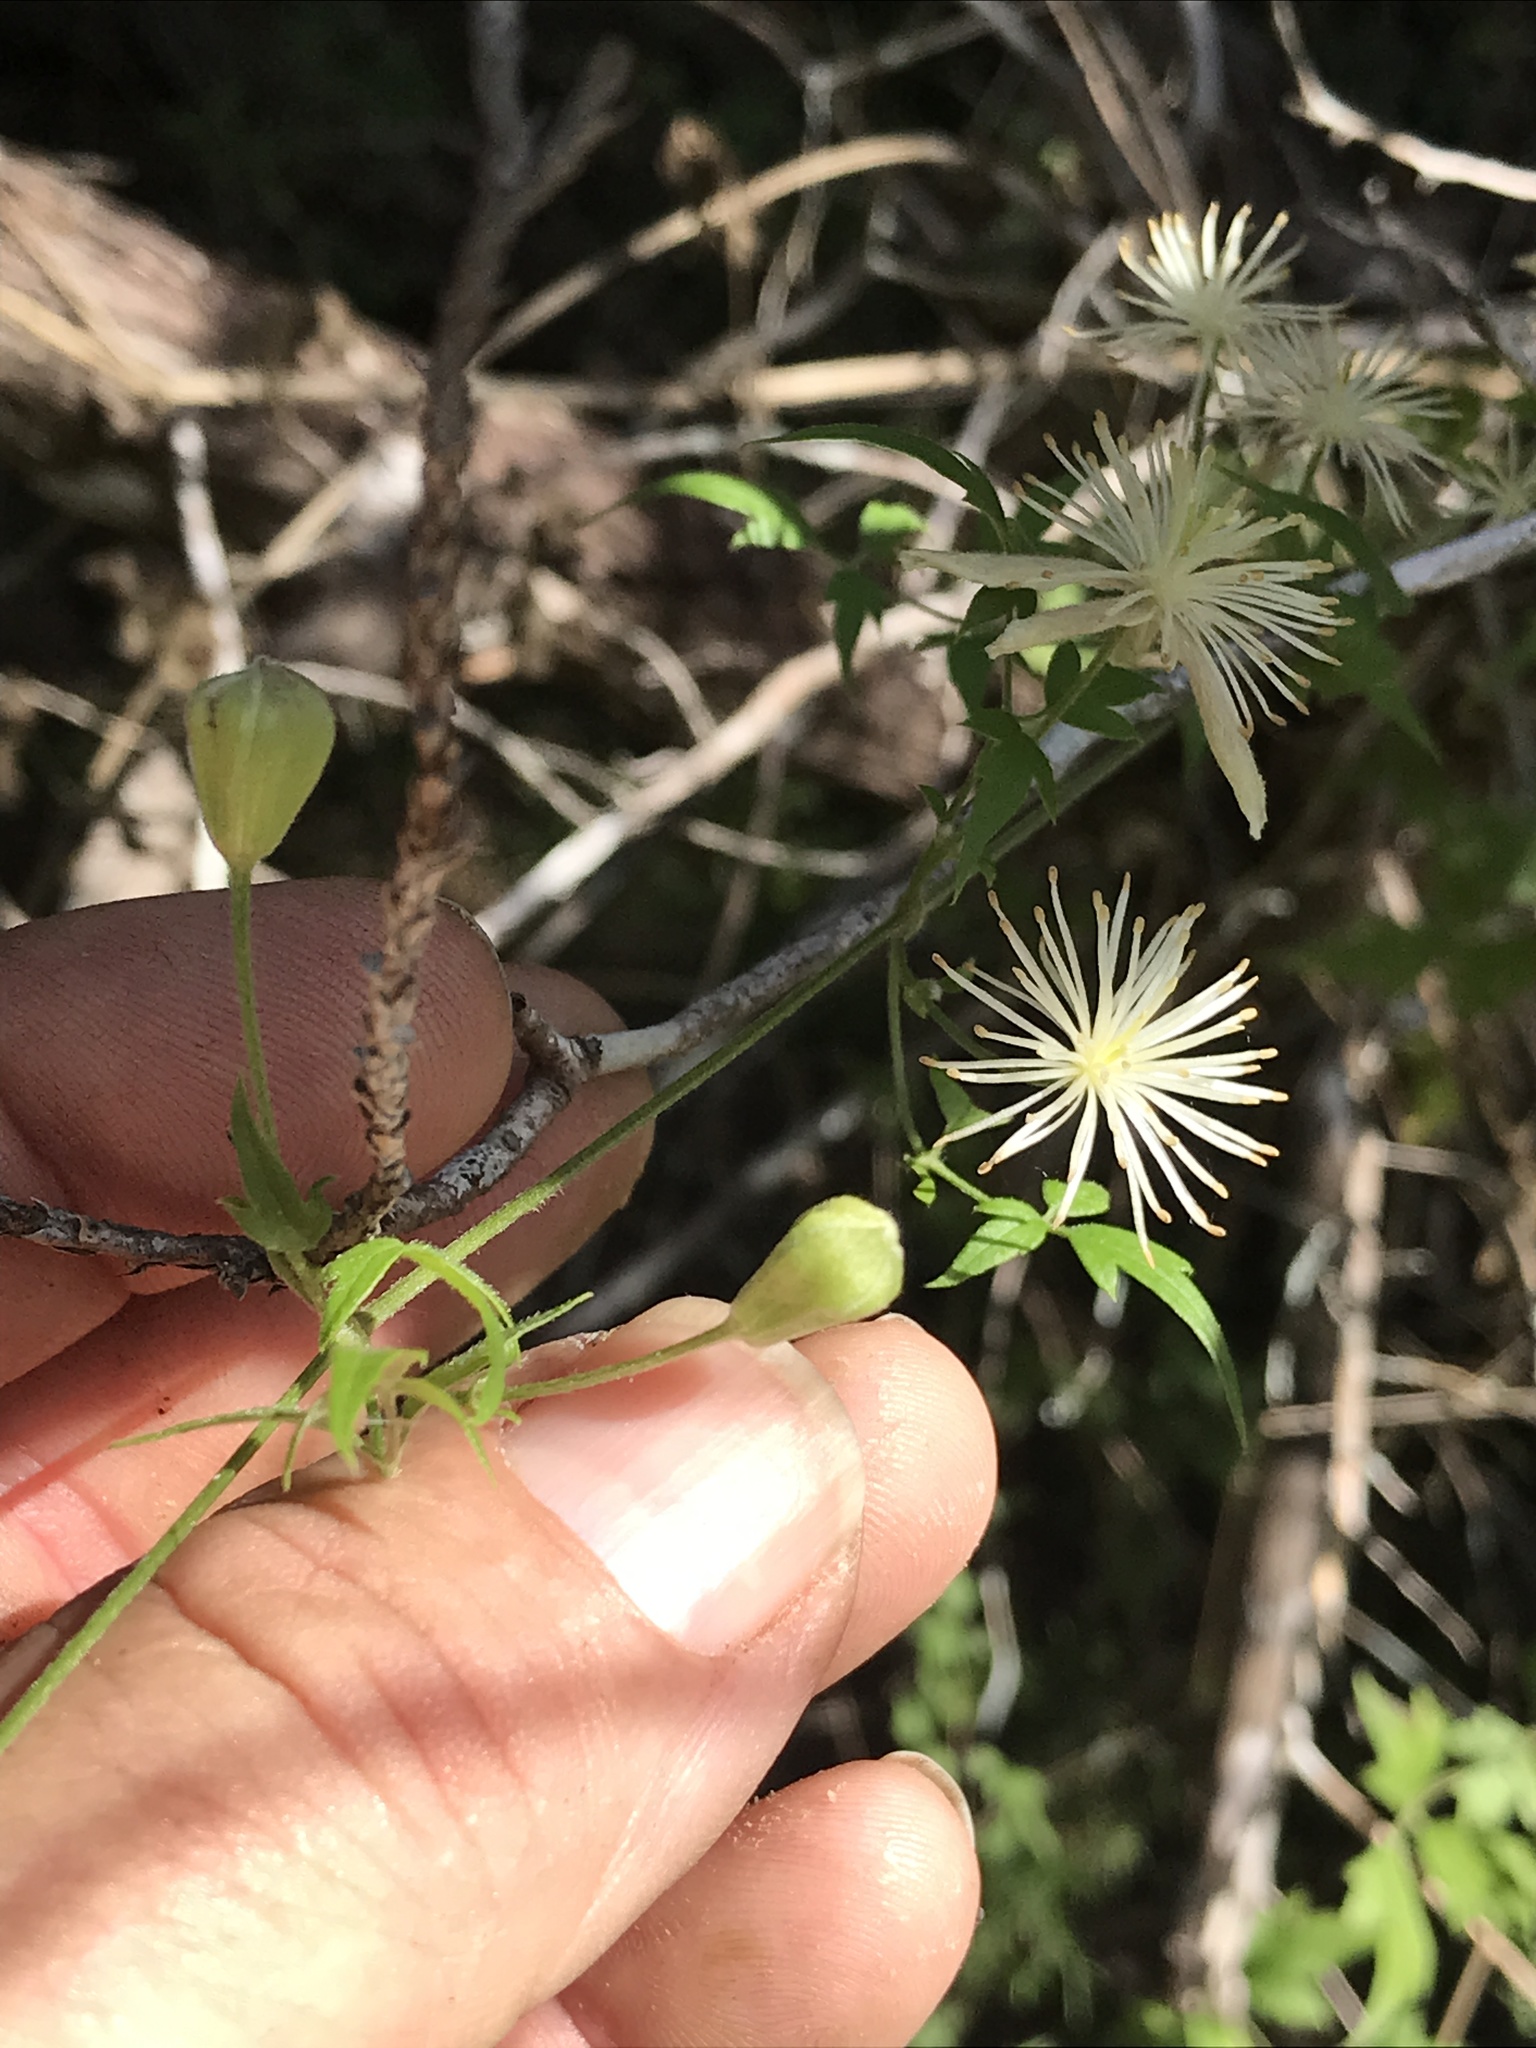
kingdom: Plantae
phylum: Tracheophyta
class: Magnoliopsida
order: Ranunculales
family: Ranunculaceae
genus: Clematis
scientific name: Clematis drummondii
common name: Texas virgin's bower
